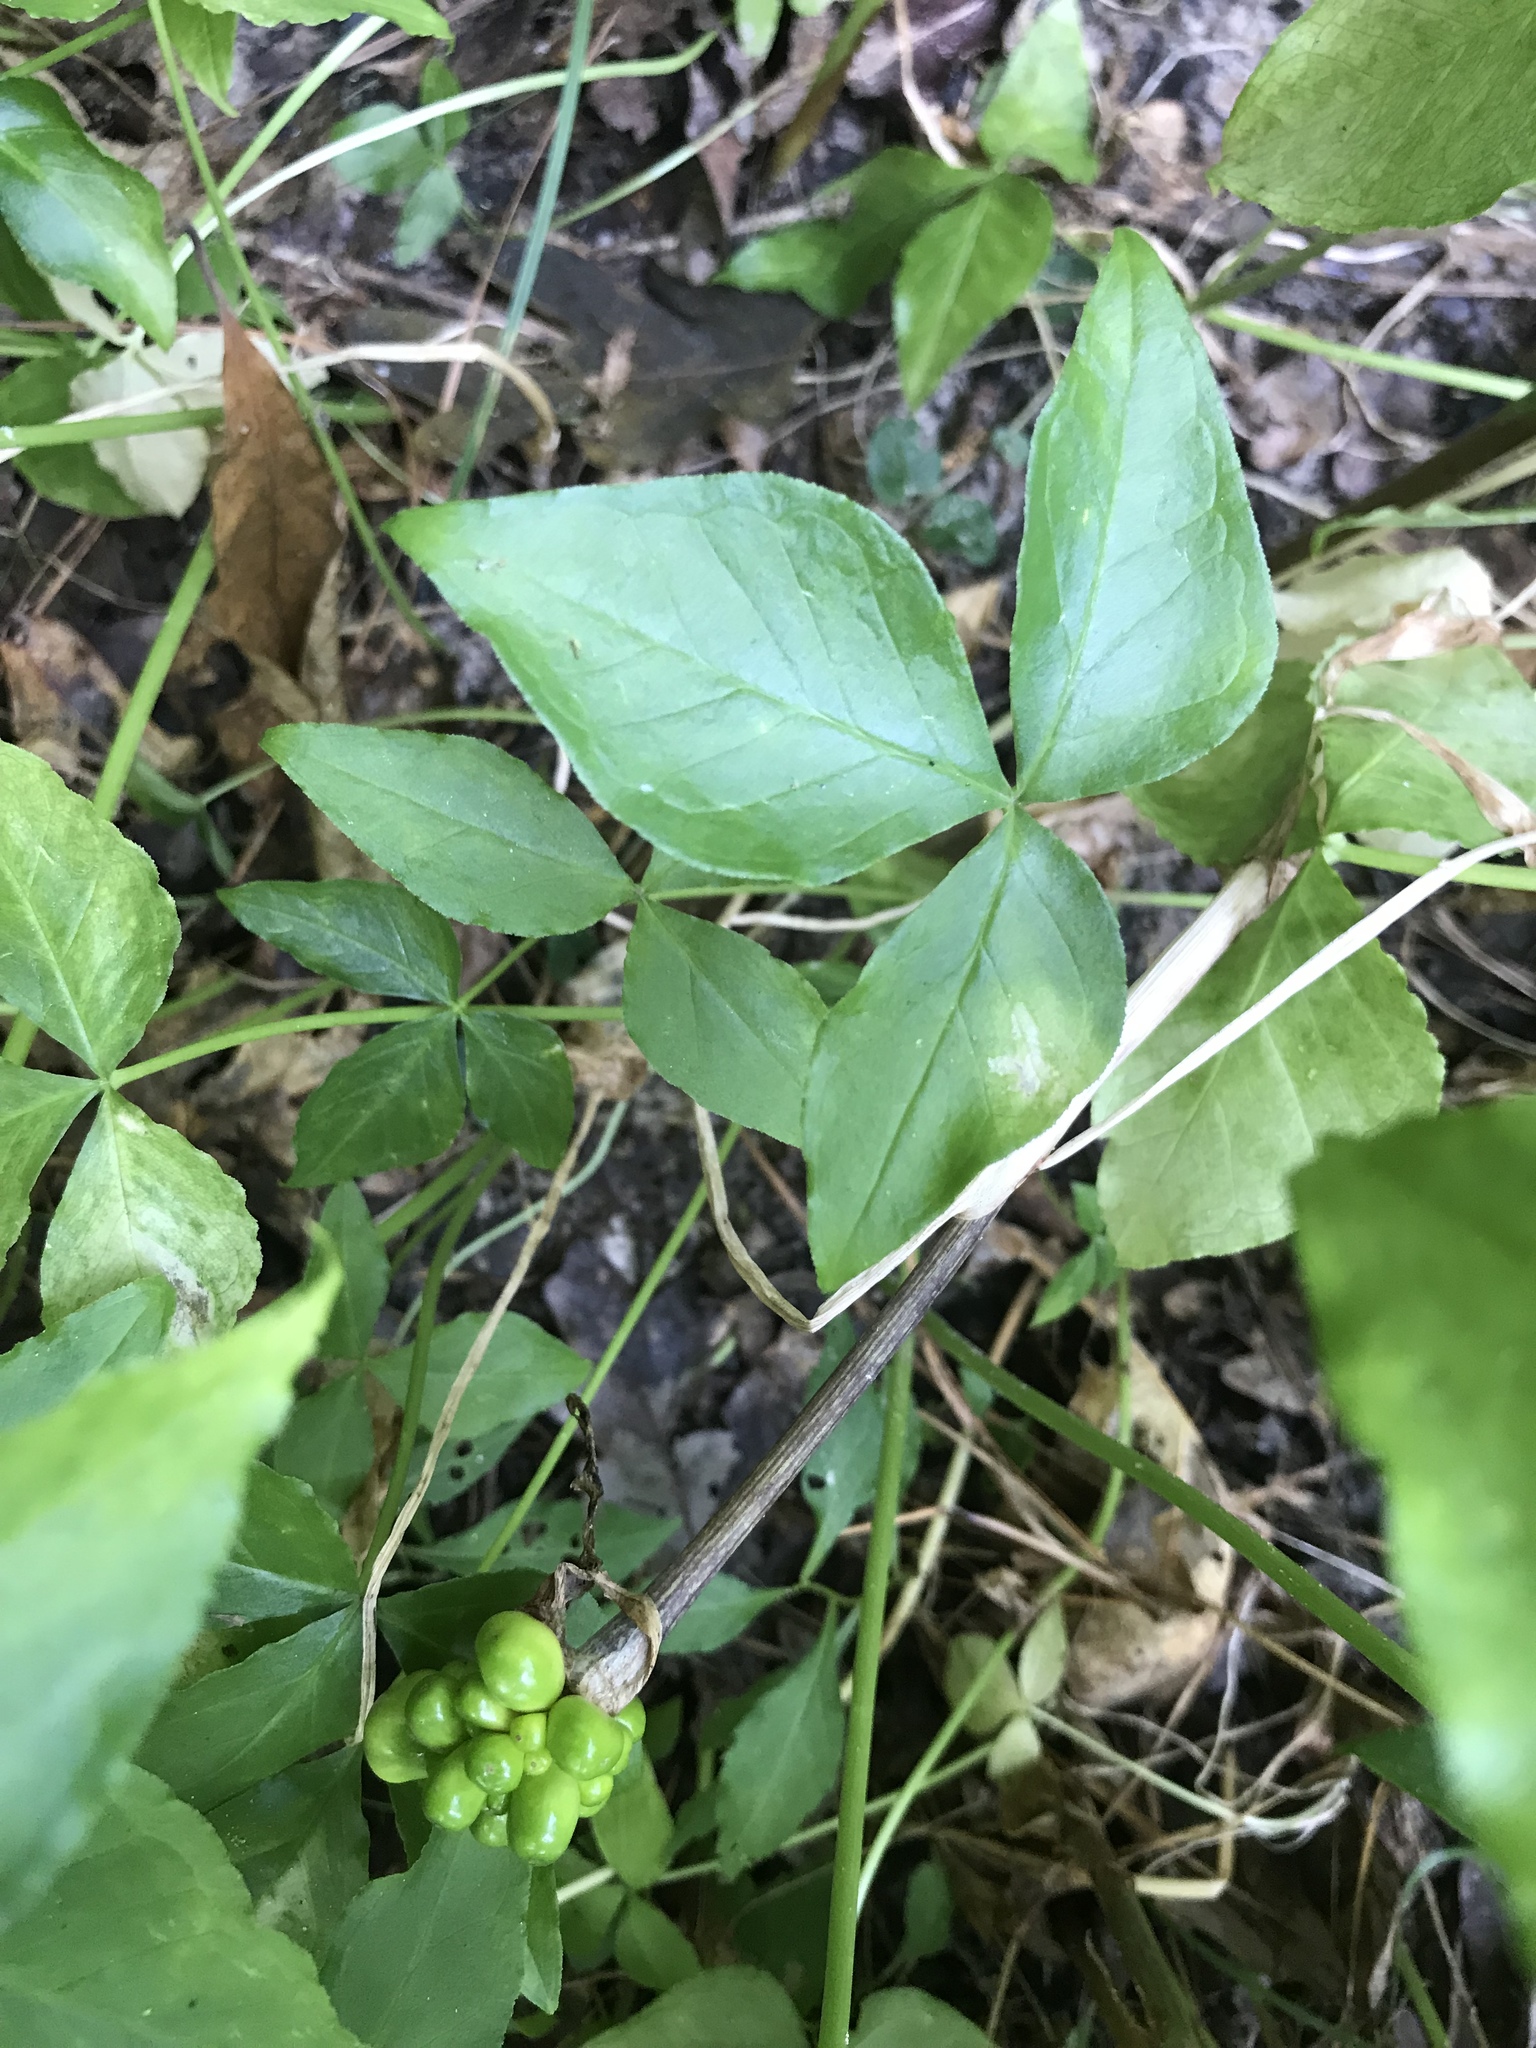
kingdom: Plantae
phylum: Tracheophyta
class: Liliopsida
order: Alismatales
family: Araceae
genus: Arisaema
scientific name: Arisaema triphyllum
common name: Jack-in-the-pulpit
